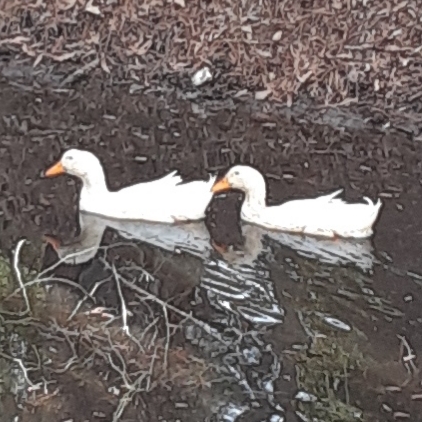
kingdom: Animalia
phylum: Chordata
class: Aves
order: Anseriformes
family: Anatidae
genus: Anas
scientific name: Anas platyrhynchos
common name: Mallard
